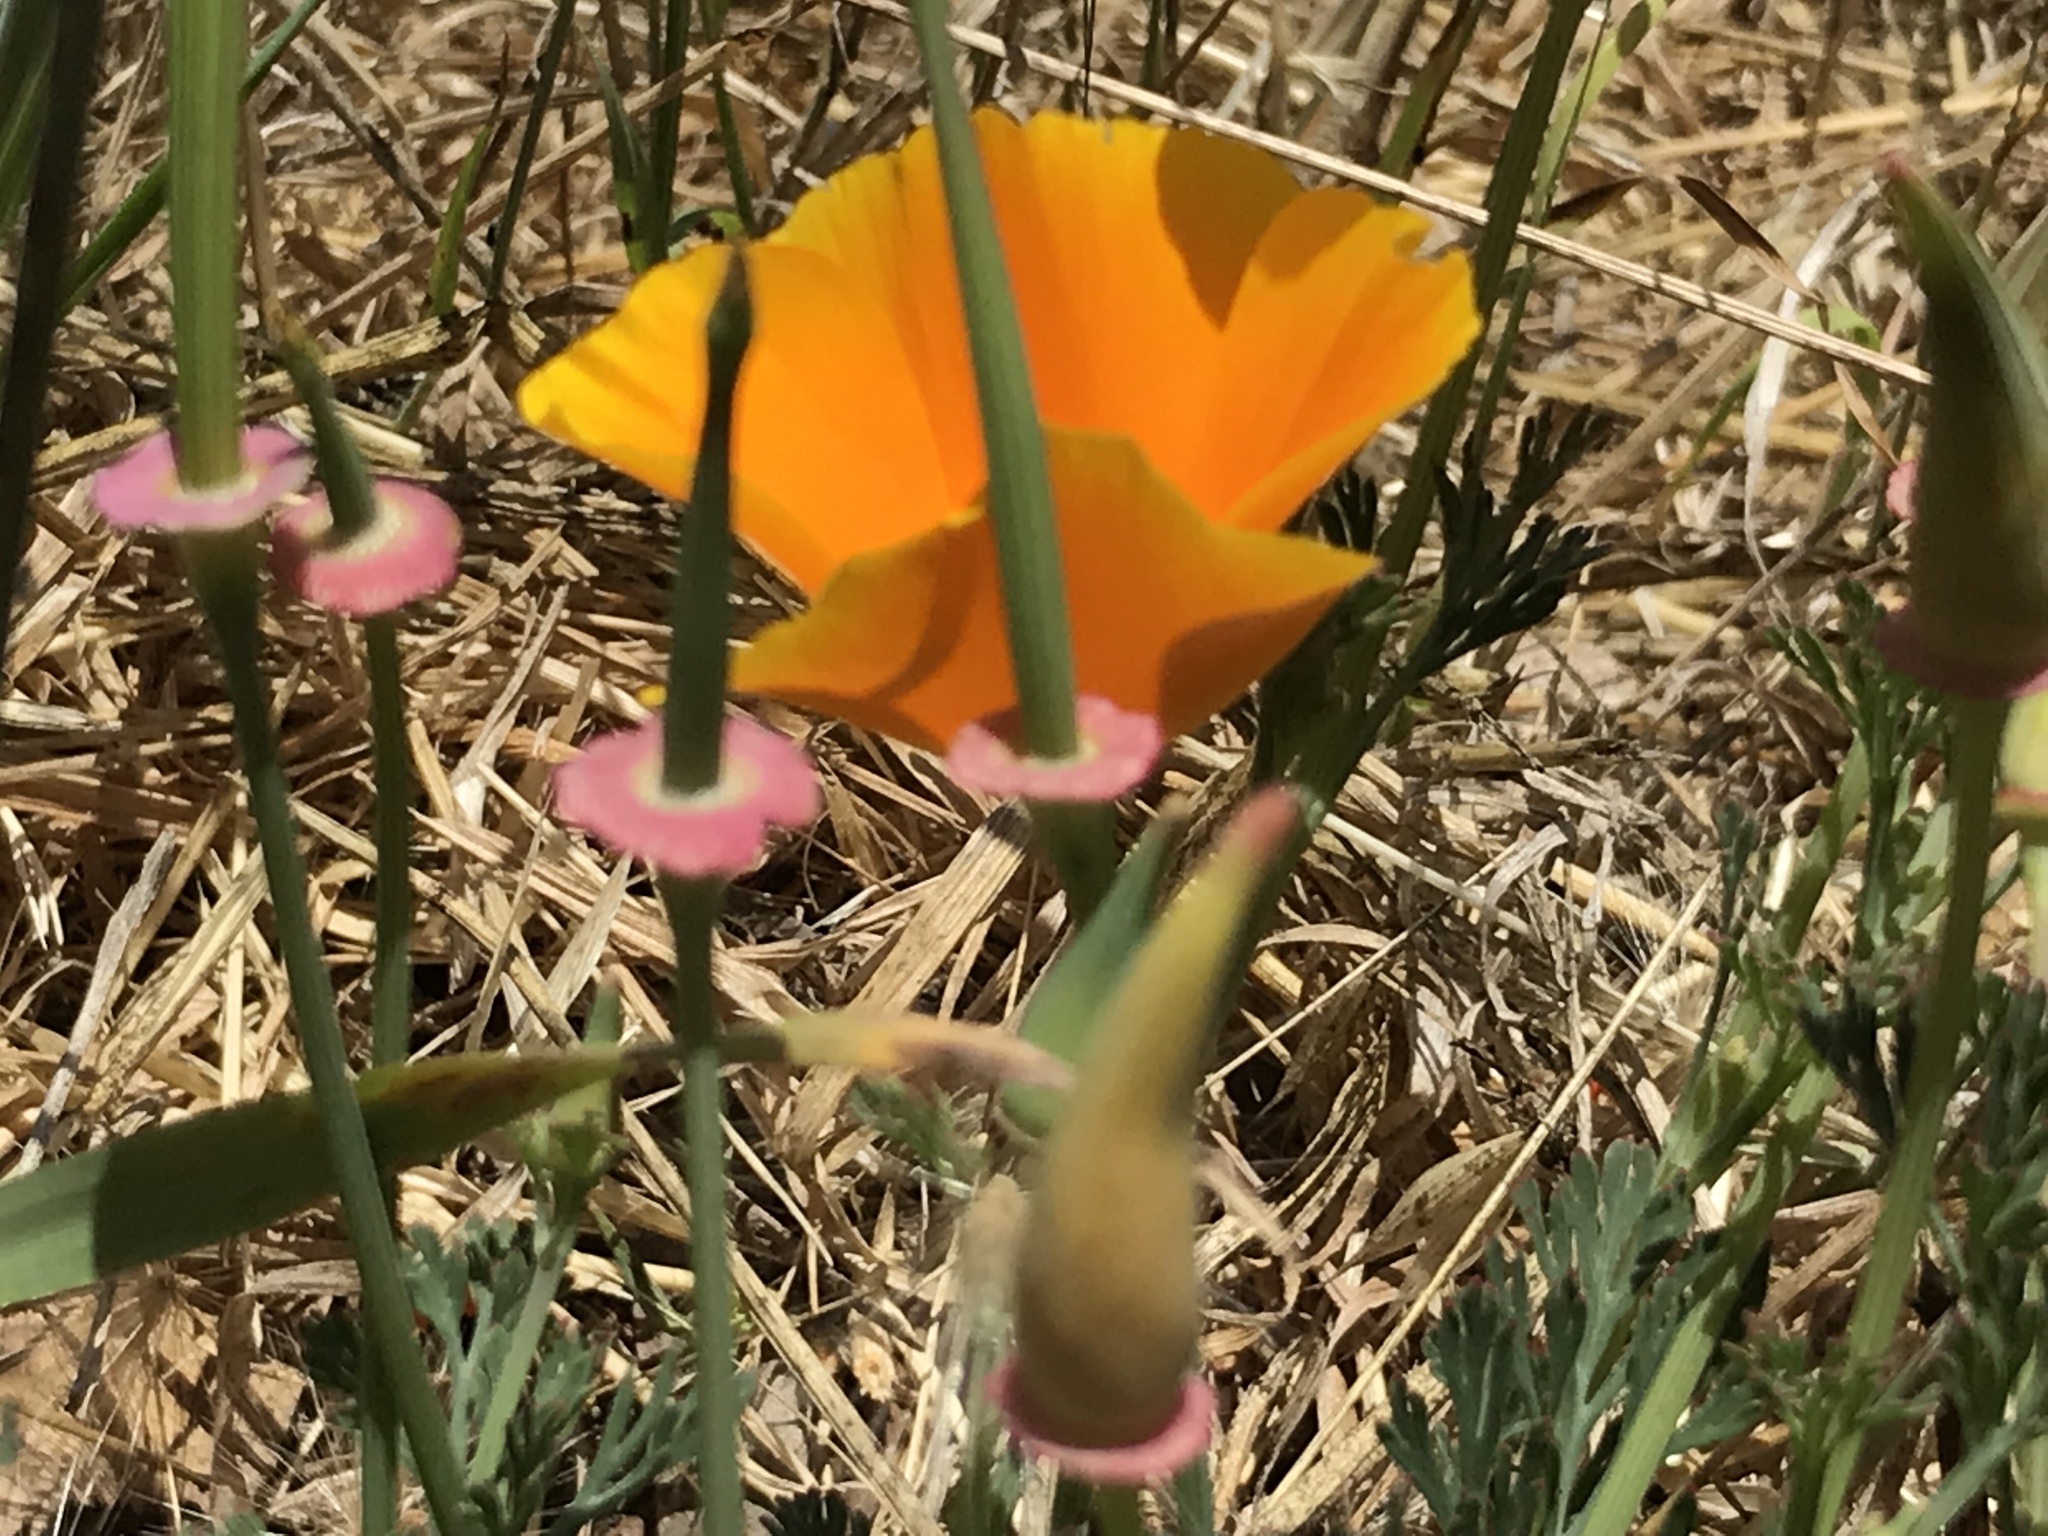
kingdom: Plantae
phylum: Tracheophyta
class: Magnoliopsida
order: Ranunculales
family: Papaveraceae
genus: Eschscholzia
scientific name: Eschscholzia californica
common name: California poppy
